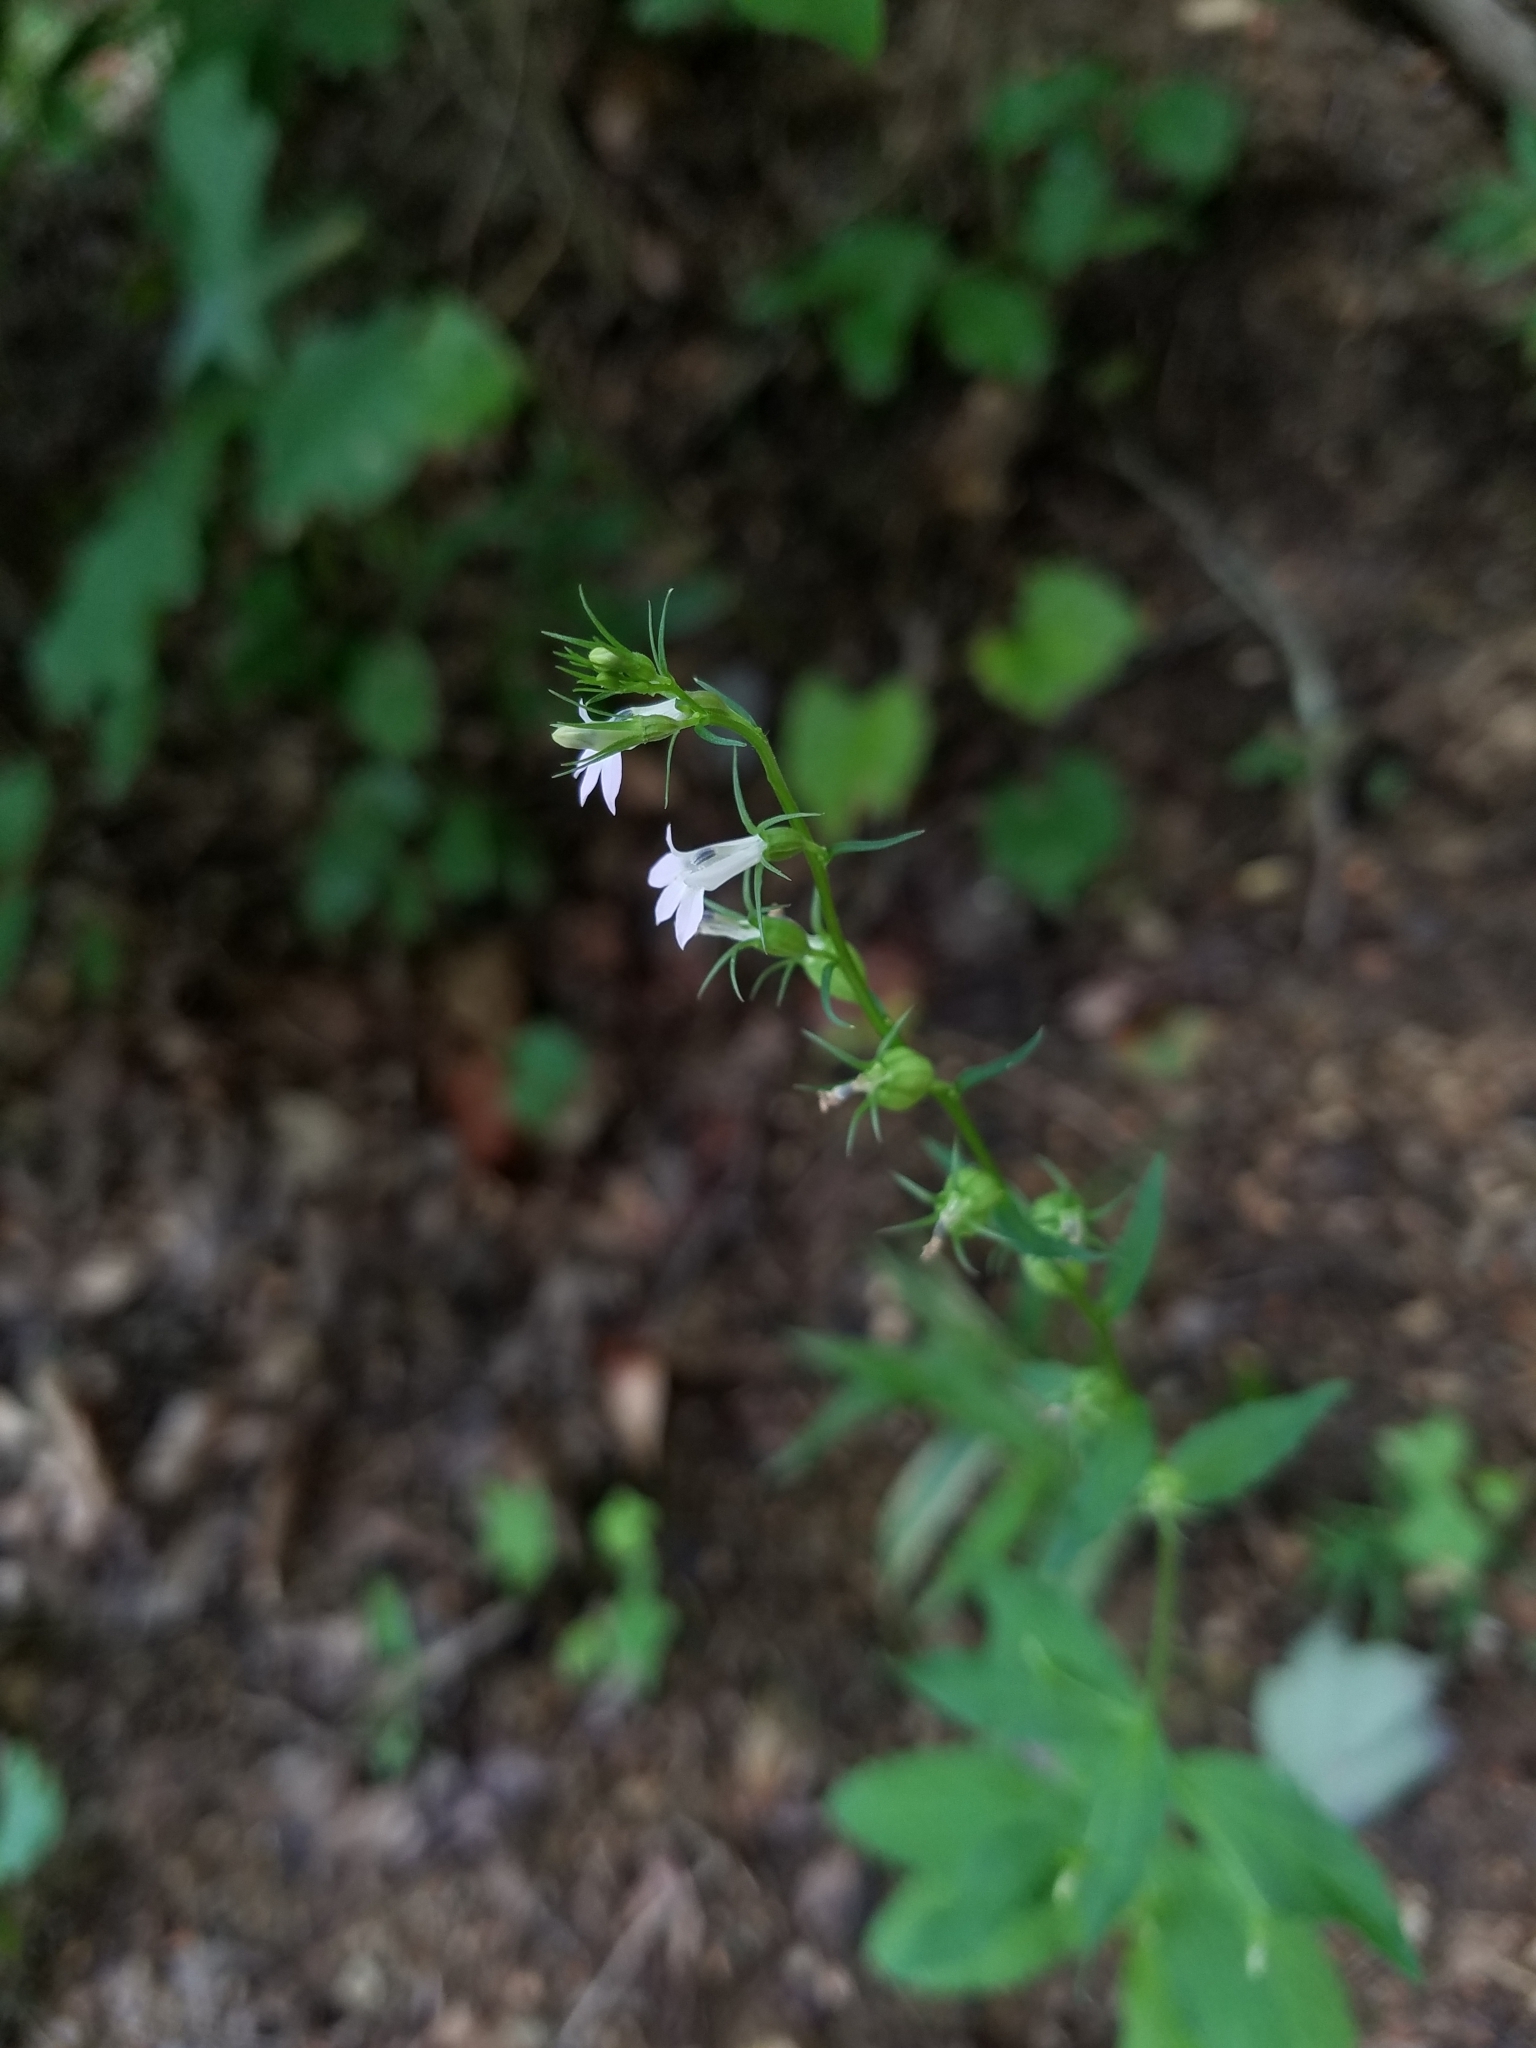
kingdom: Plantae
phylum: Tracheophyta
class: Magnoliopsida
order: Asterales
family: Campanulaceae
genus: Lobelia
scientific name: Lobelia inflata
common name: Indian tobacco
